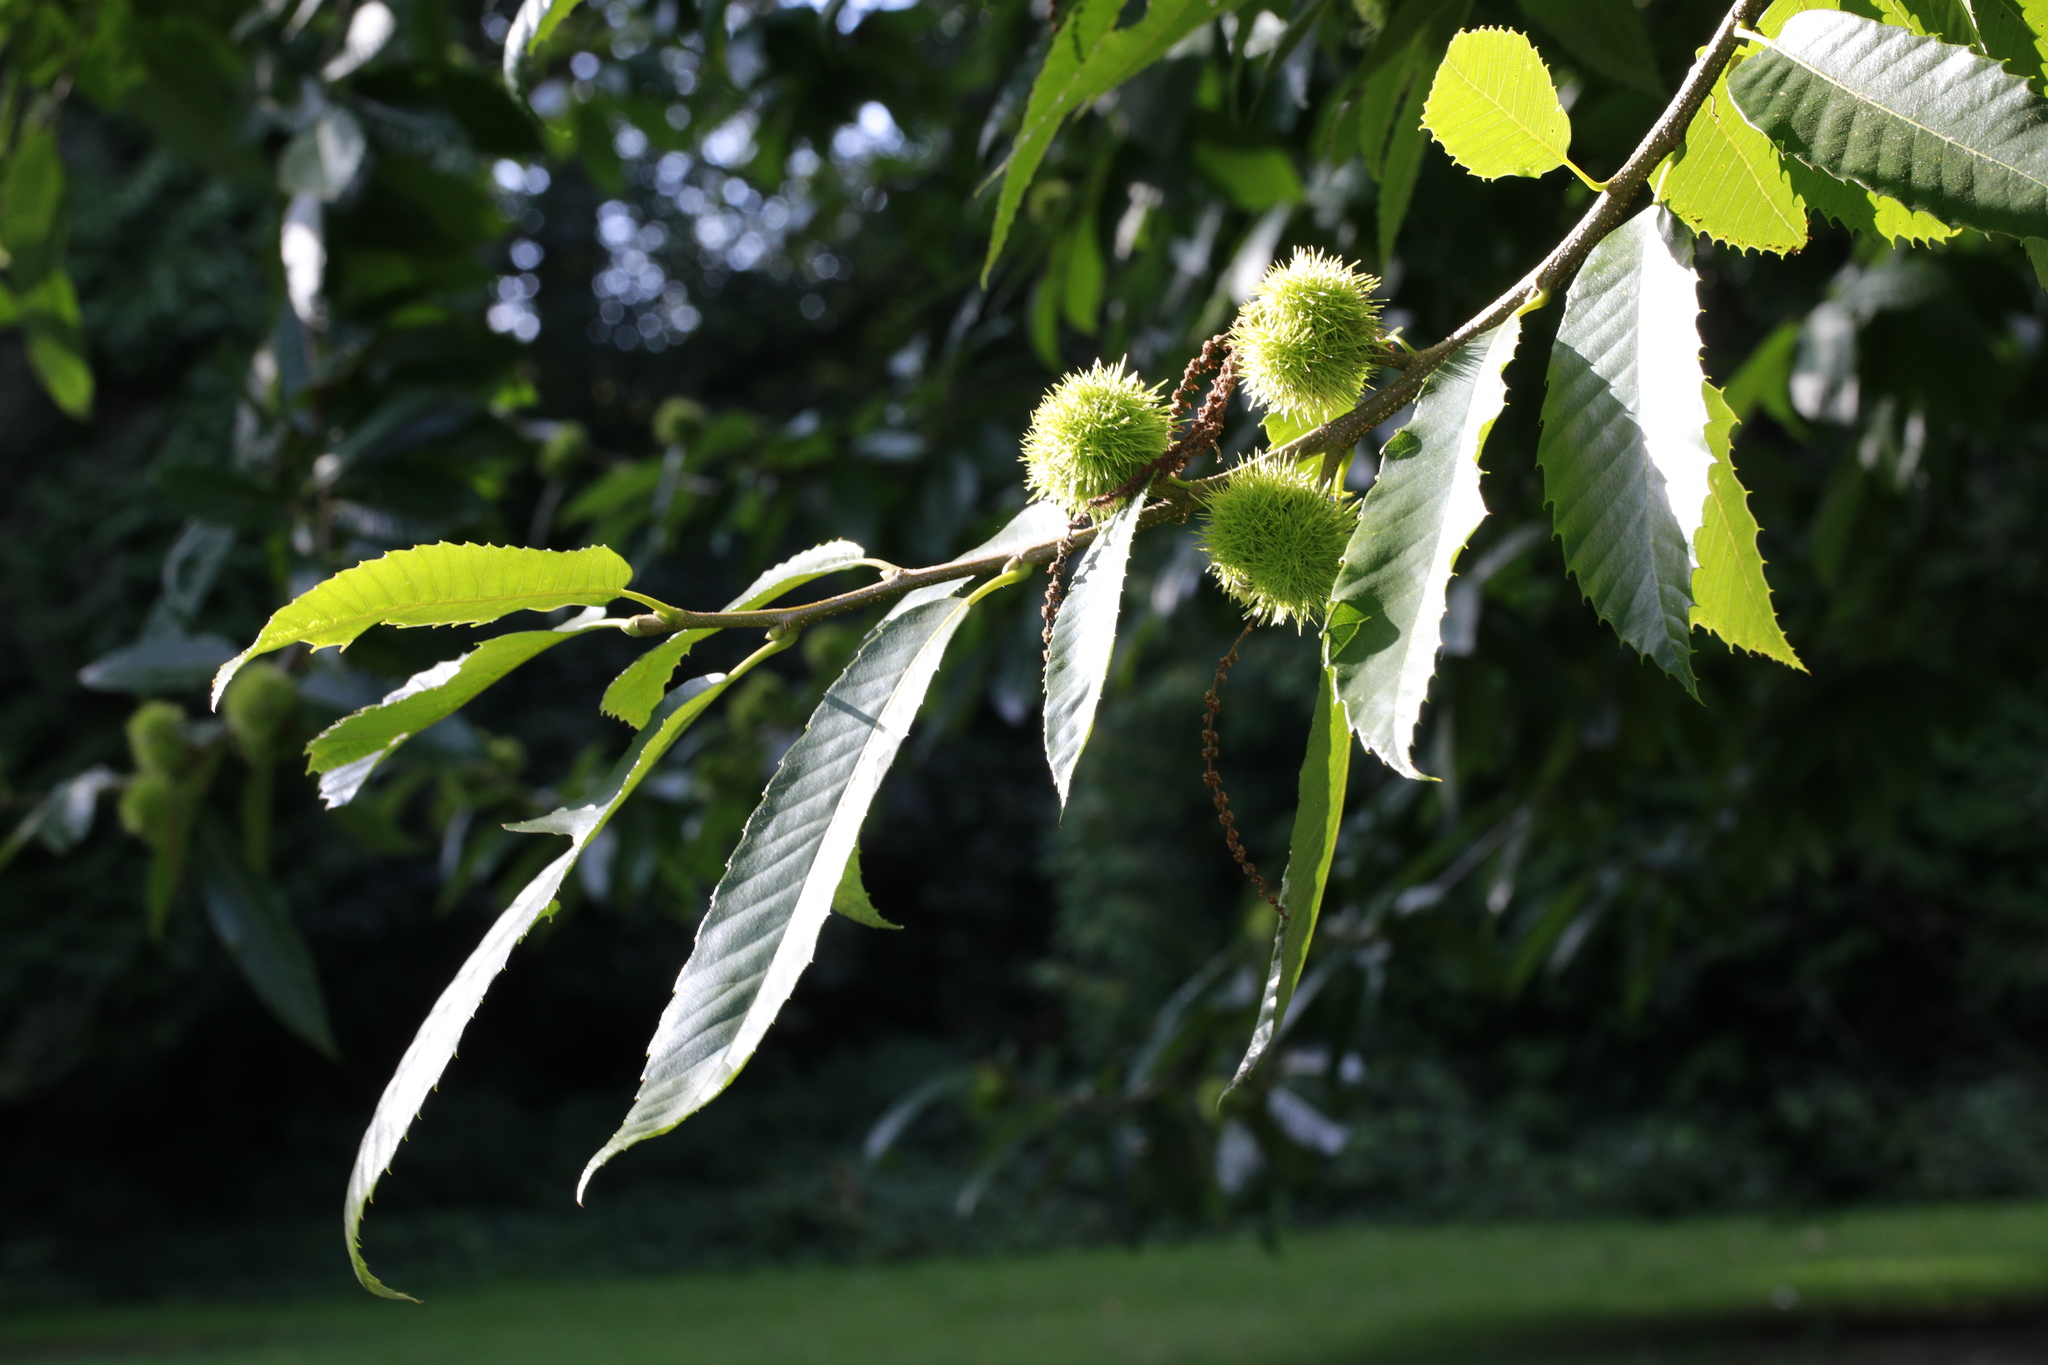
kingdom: Plantae
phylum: Tracheophyta
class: Magnoliopsida
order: Fagales
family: Fagaceae
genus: Castanea
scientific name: Castanea sativa
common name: Sweet chestnut
